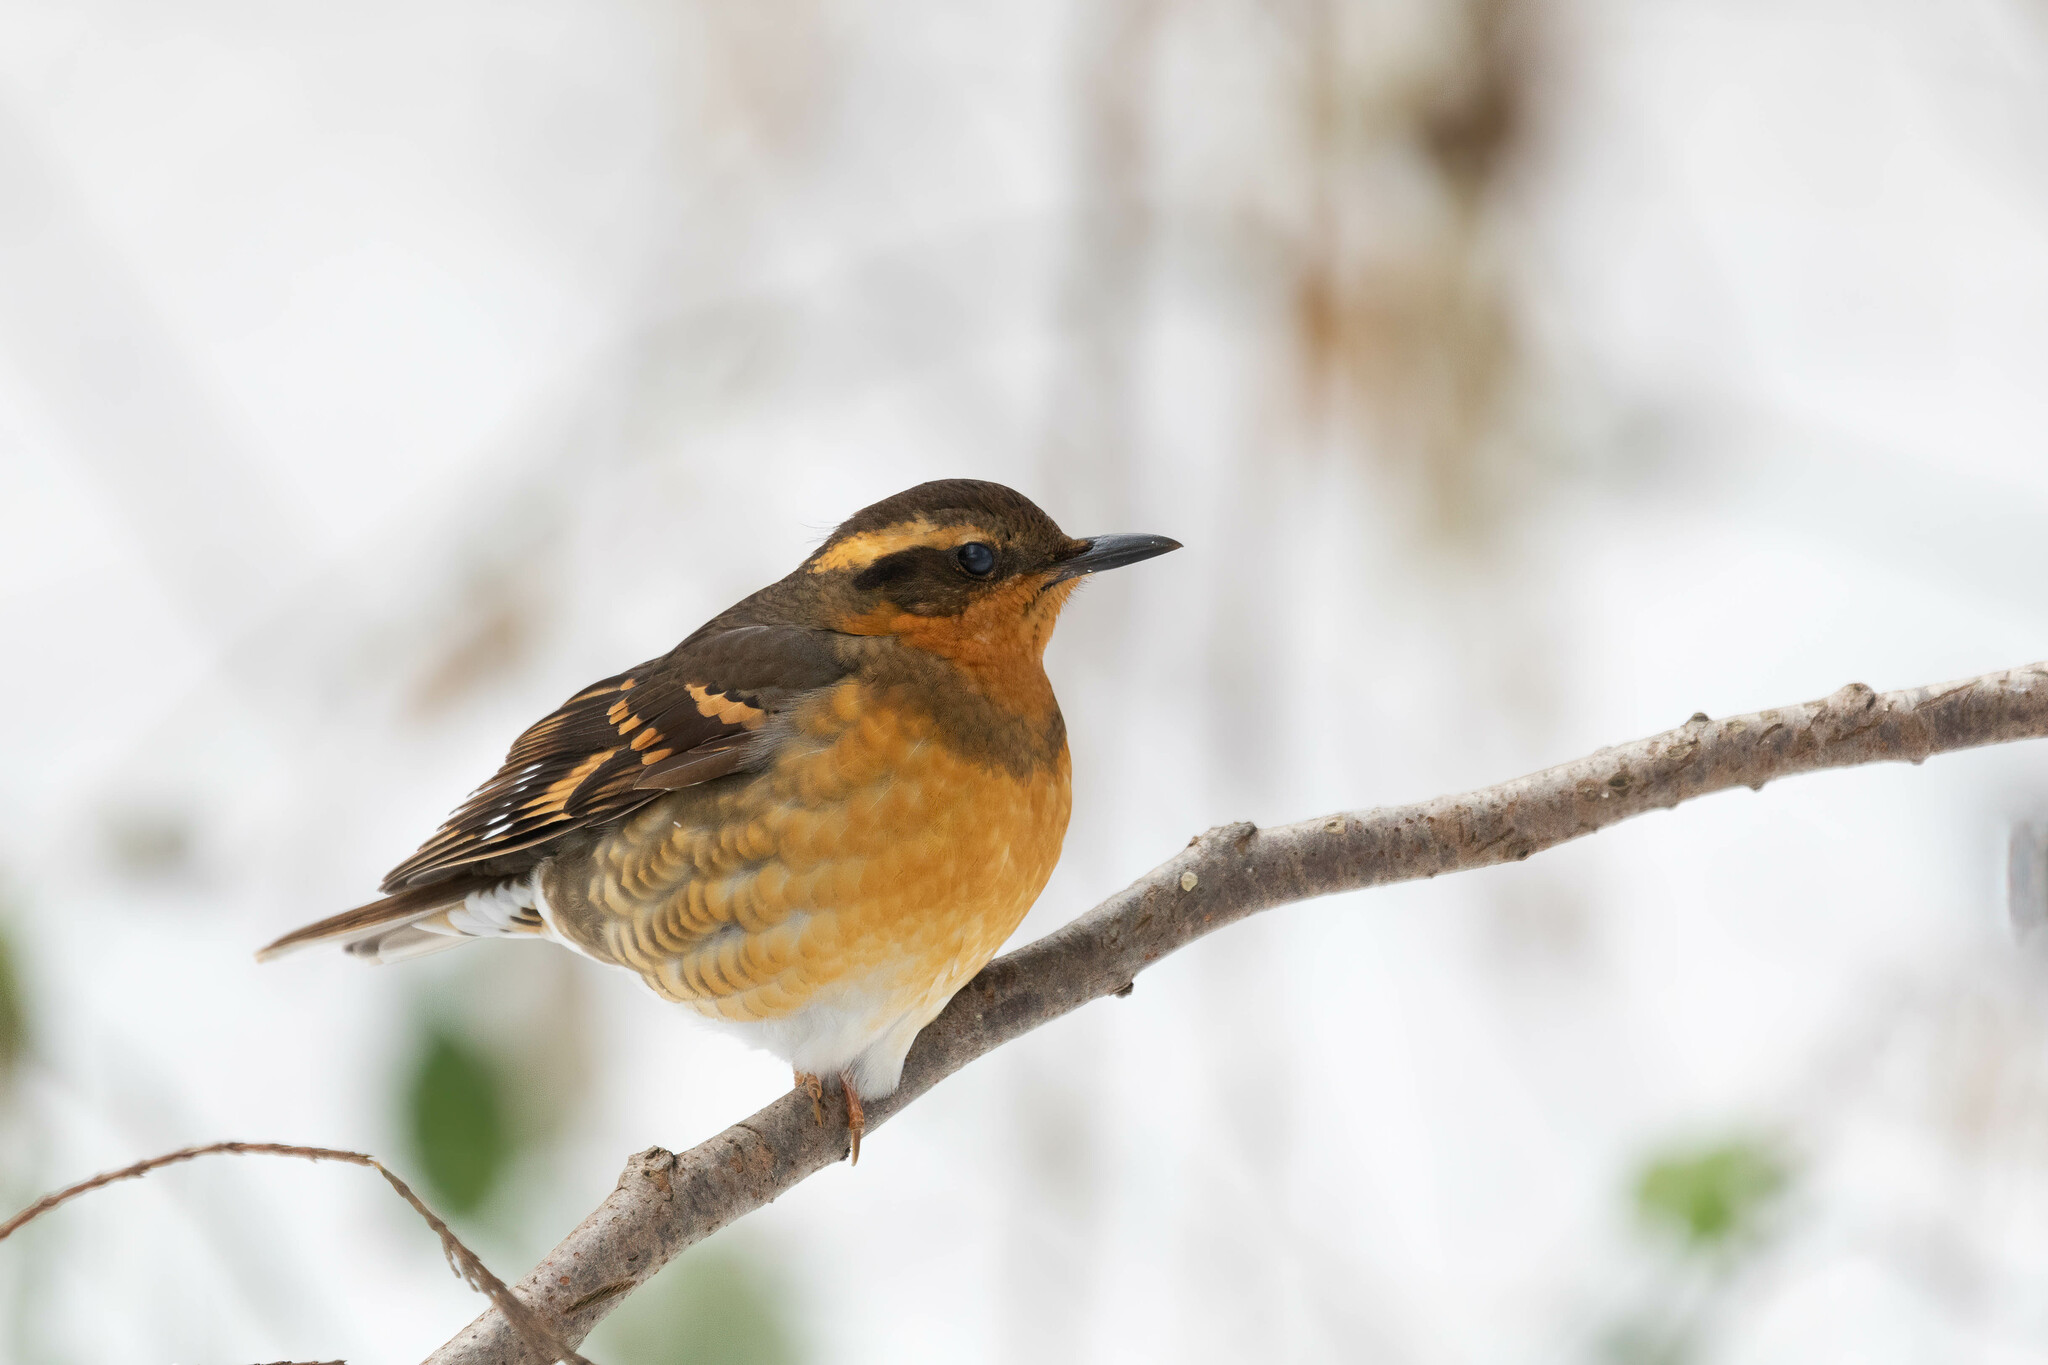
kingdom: Animalia
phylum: Chordata
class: Aves
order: Passeriformes
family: Turdidae
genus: Ixoreus
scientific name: Ixoreus naevius
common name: Varied thrush
